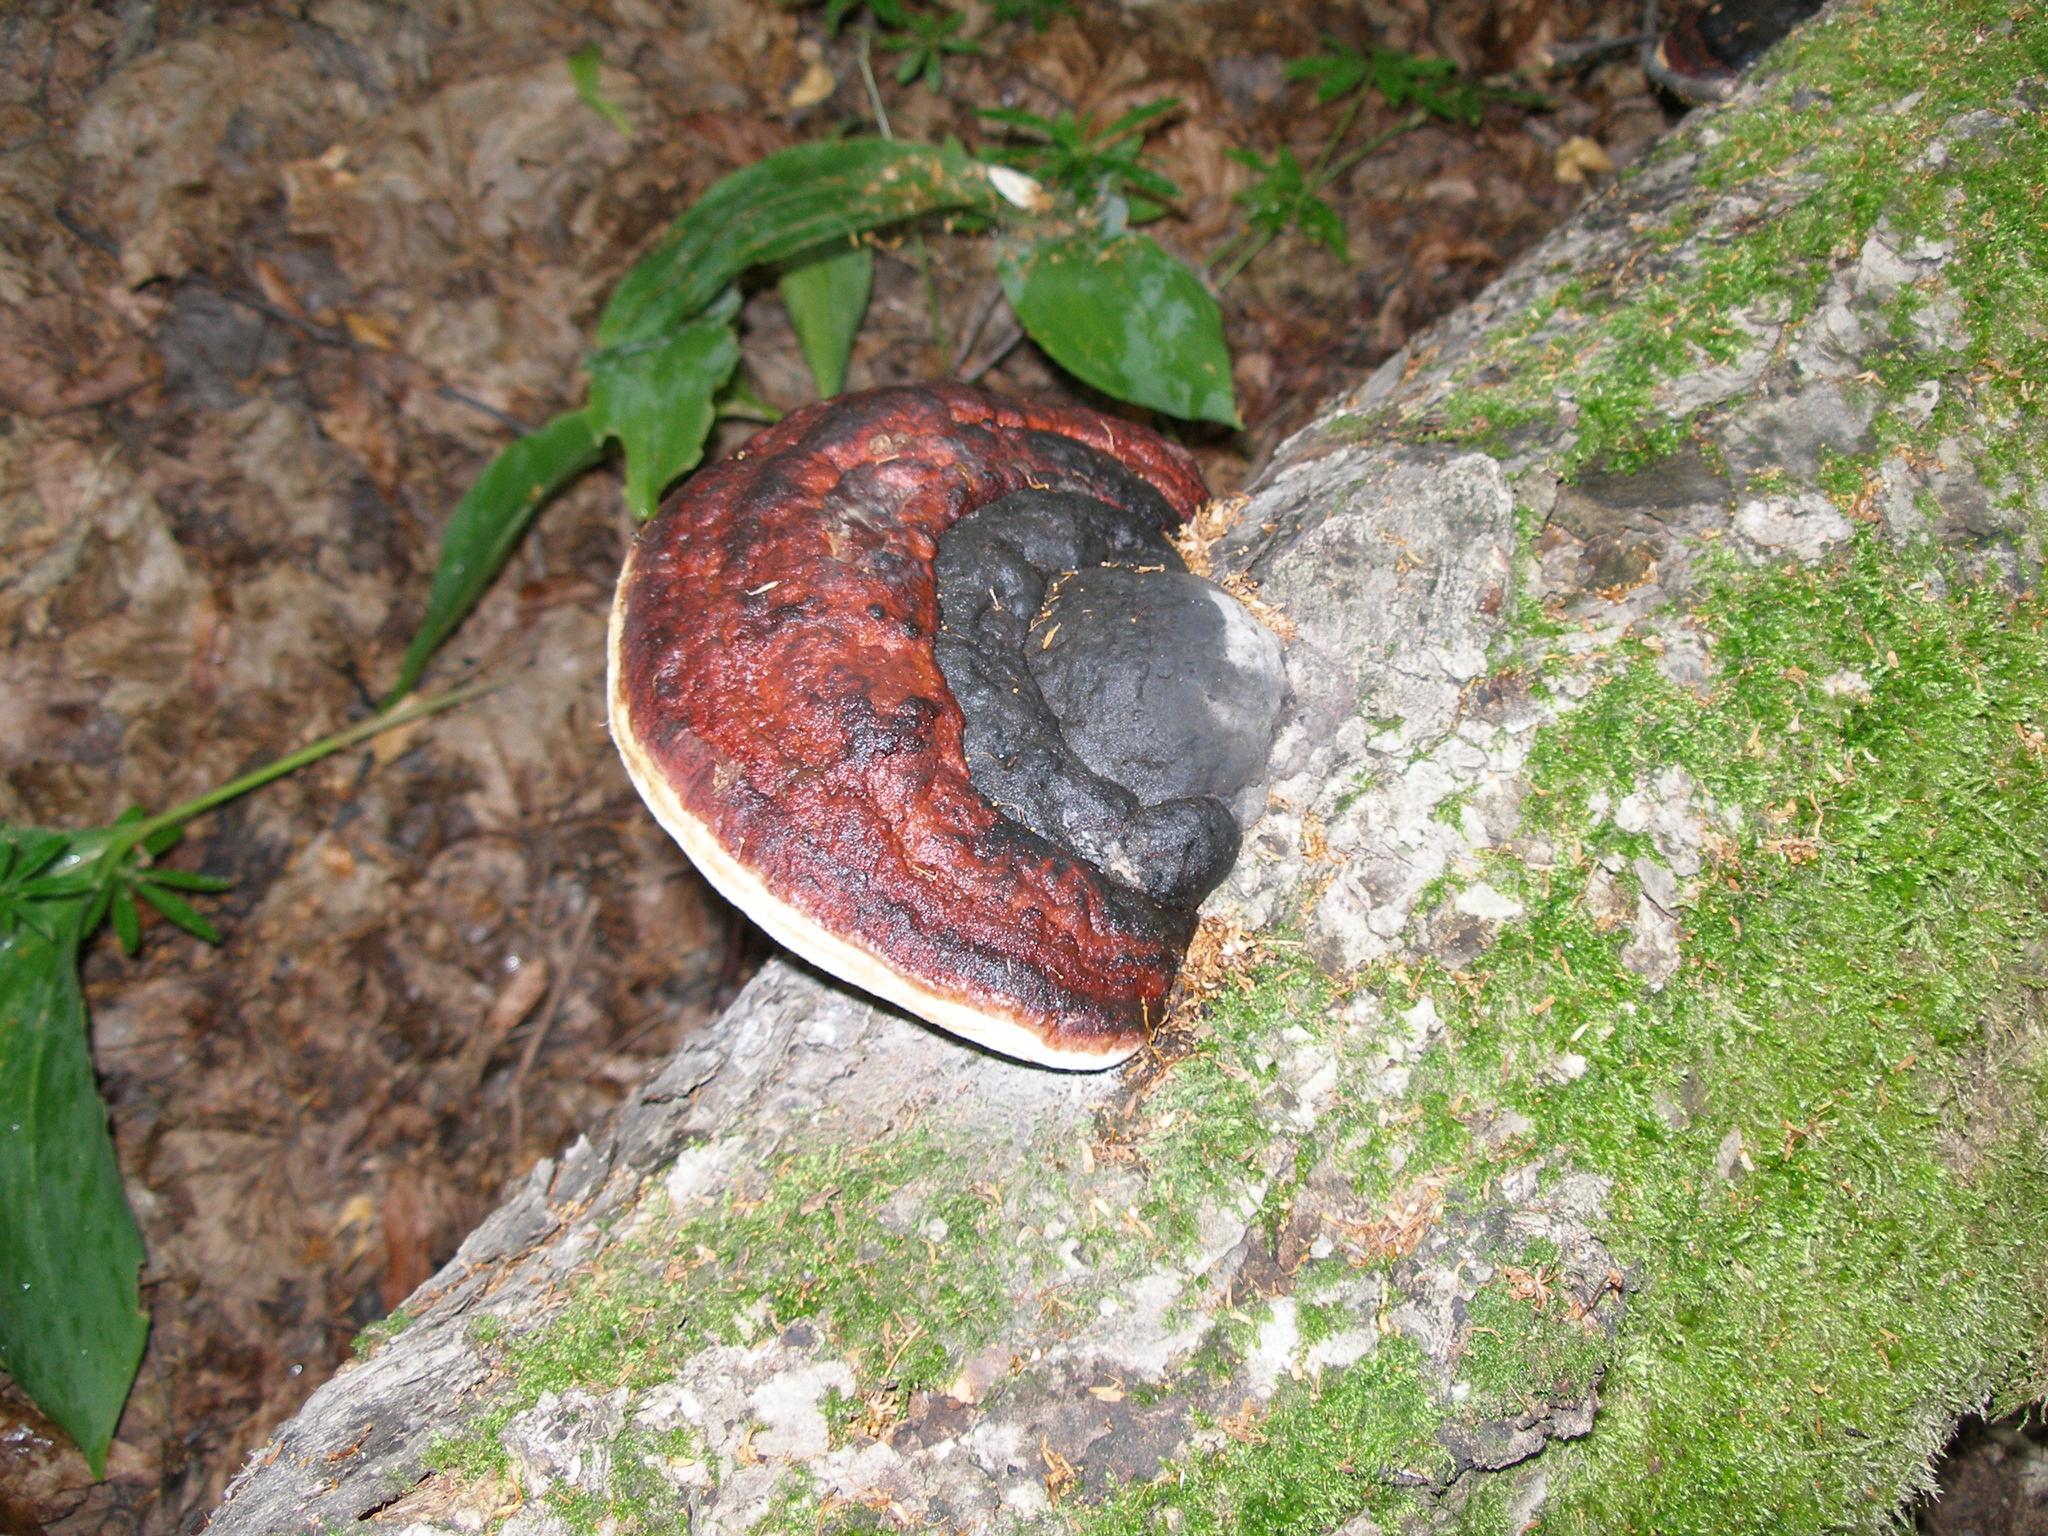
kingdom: Fungi
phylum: Basidiomycota
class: Agaricomycetes
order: Polyporales
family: Fomitopsidaceae
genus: Fomitopsis
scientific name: Fomitopsis pinicola
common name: Red-belted bracket
